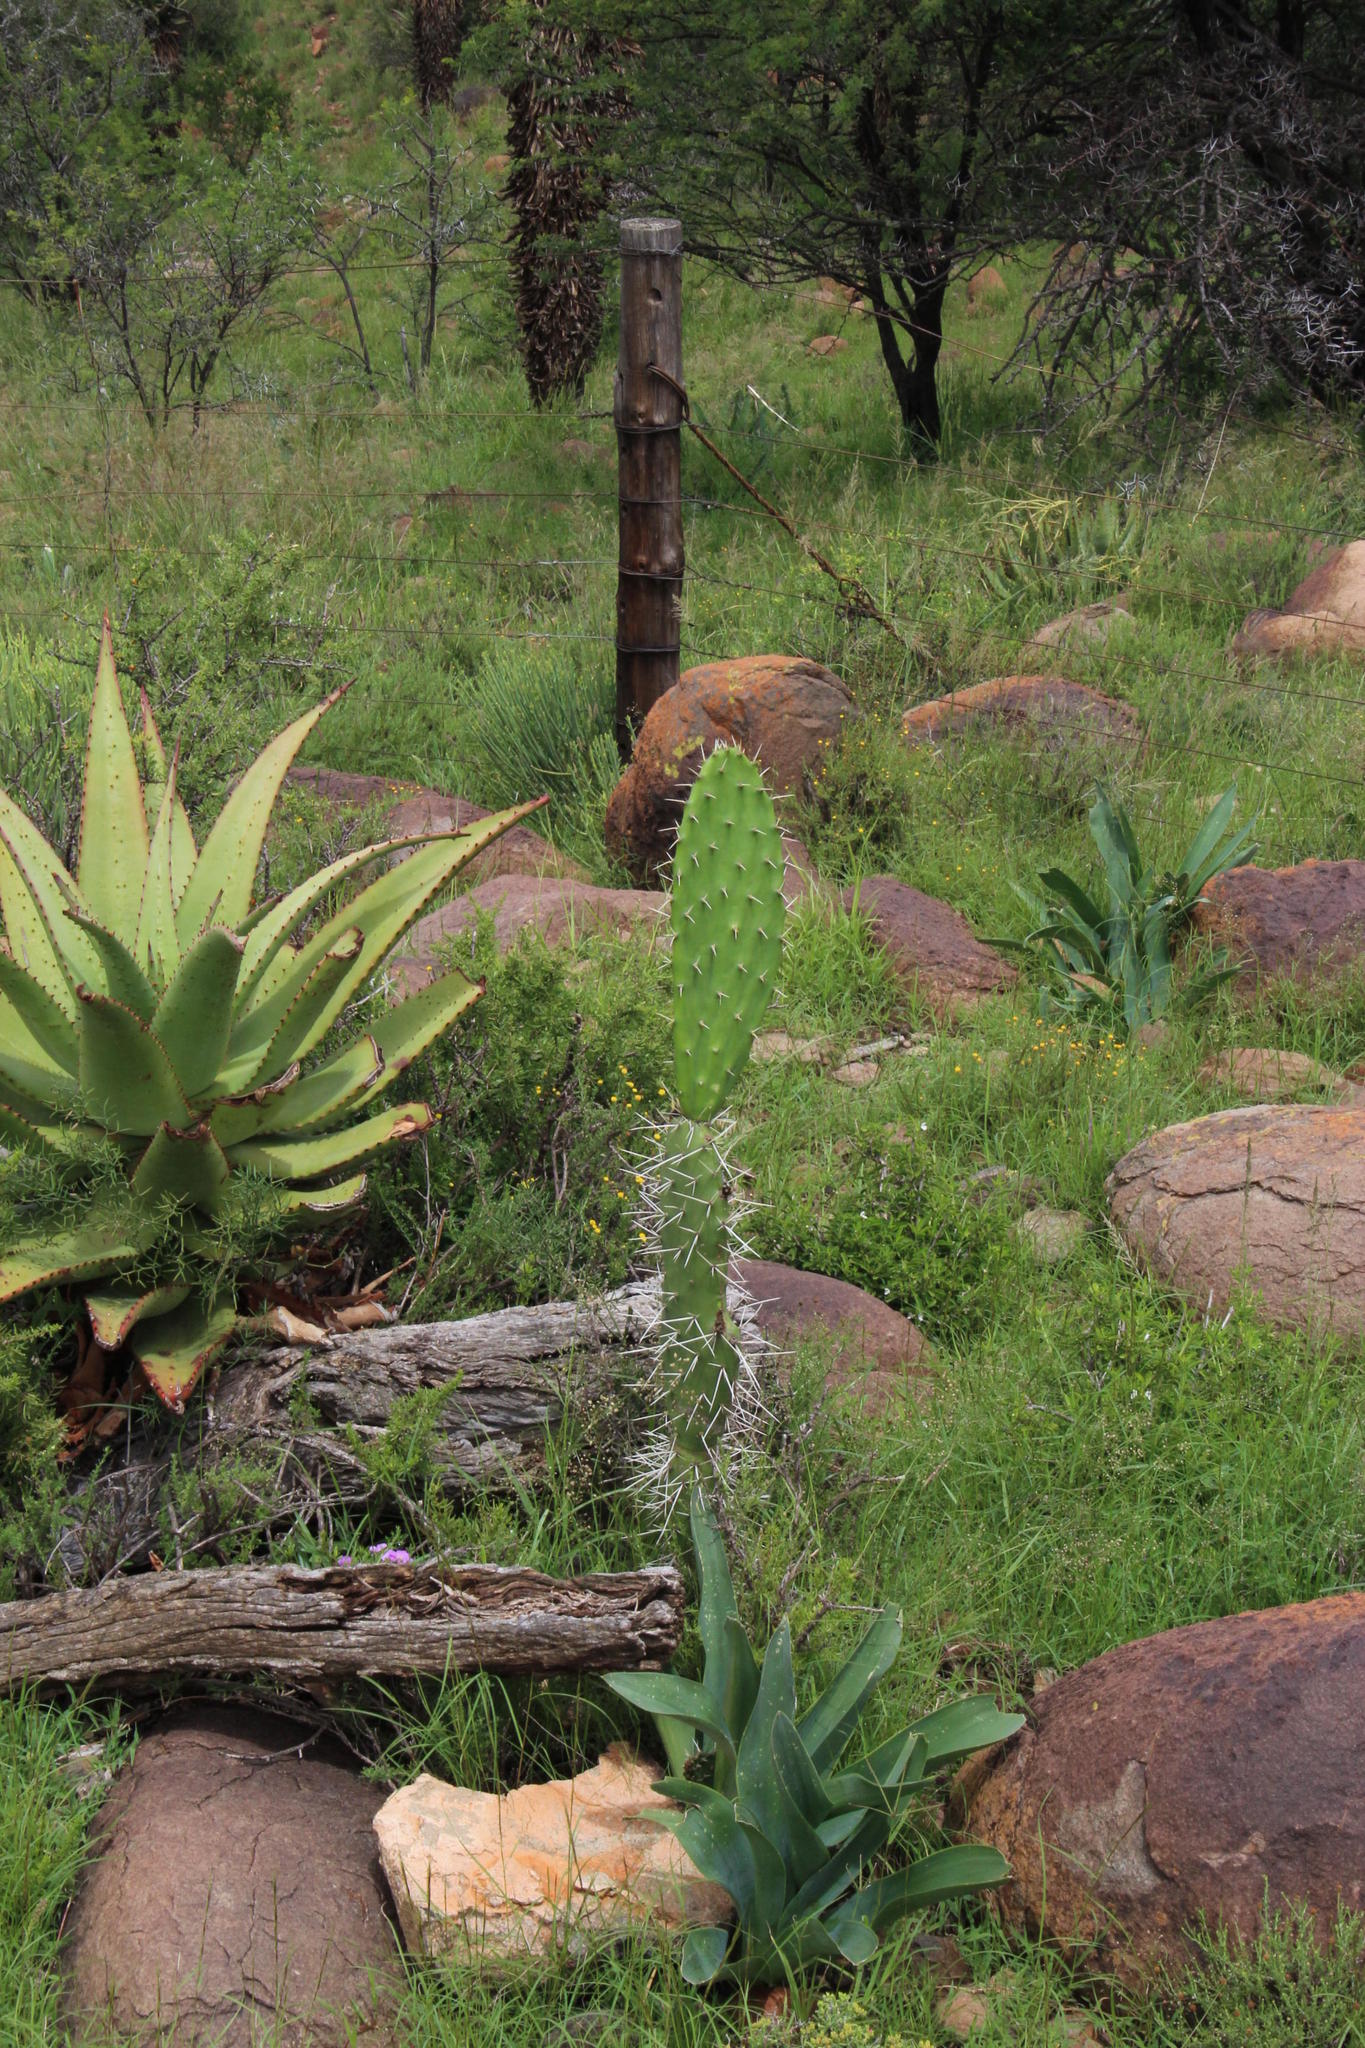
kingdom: Plantae
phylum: Tracheophyta
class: Magnoliopsida
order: Caryophyllales
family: Cactaceae
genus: Opuntia
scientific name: Opuntia ficus-indica
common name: Barbary fig
